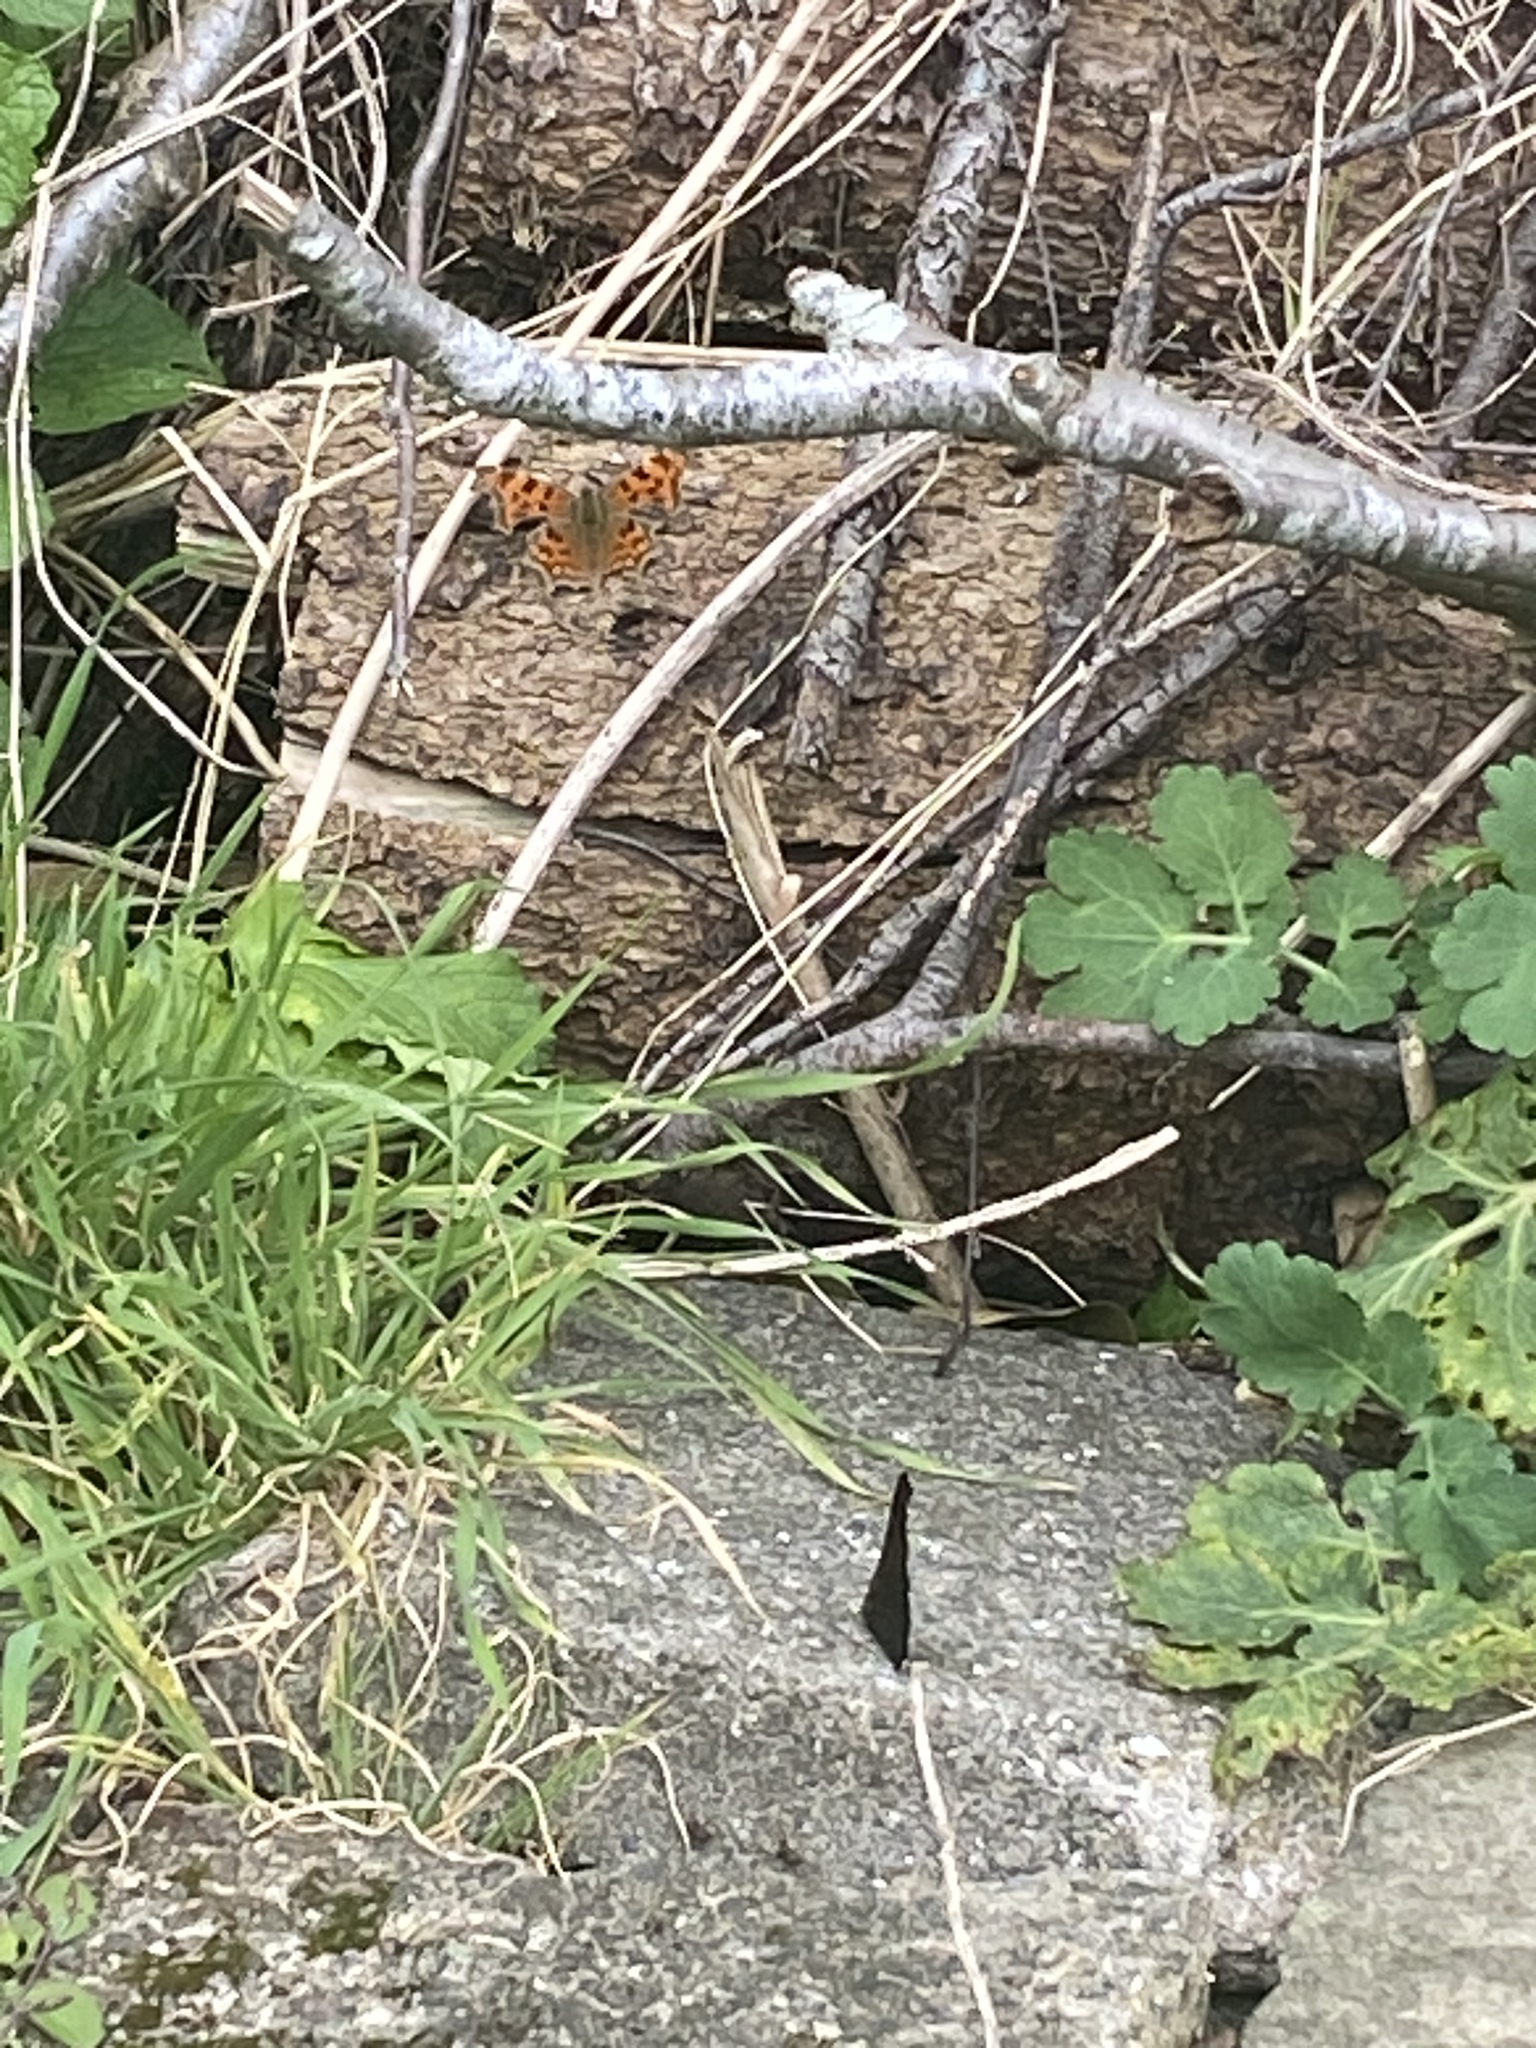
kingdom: Animalia
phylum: Arthropoda
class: Insecta
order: Lepidoptera
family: Nymphalidae
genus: Polygonia
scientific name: Polygonia c-album
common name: Comma
